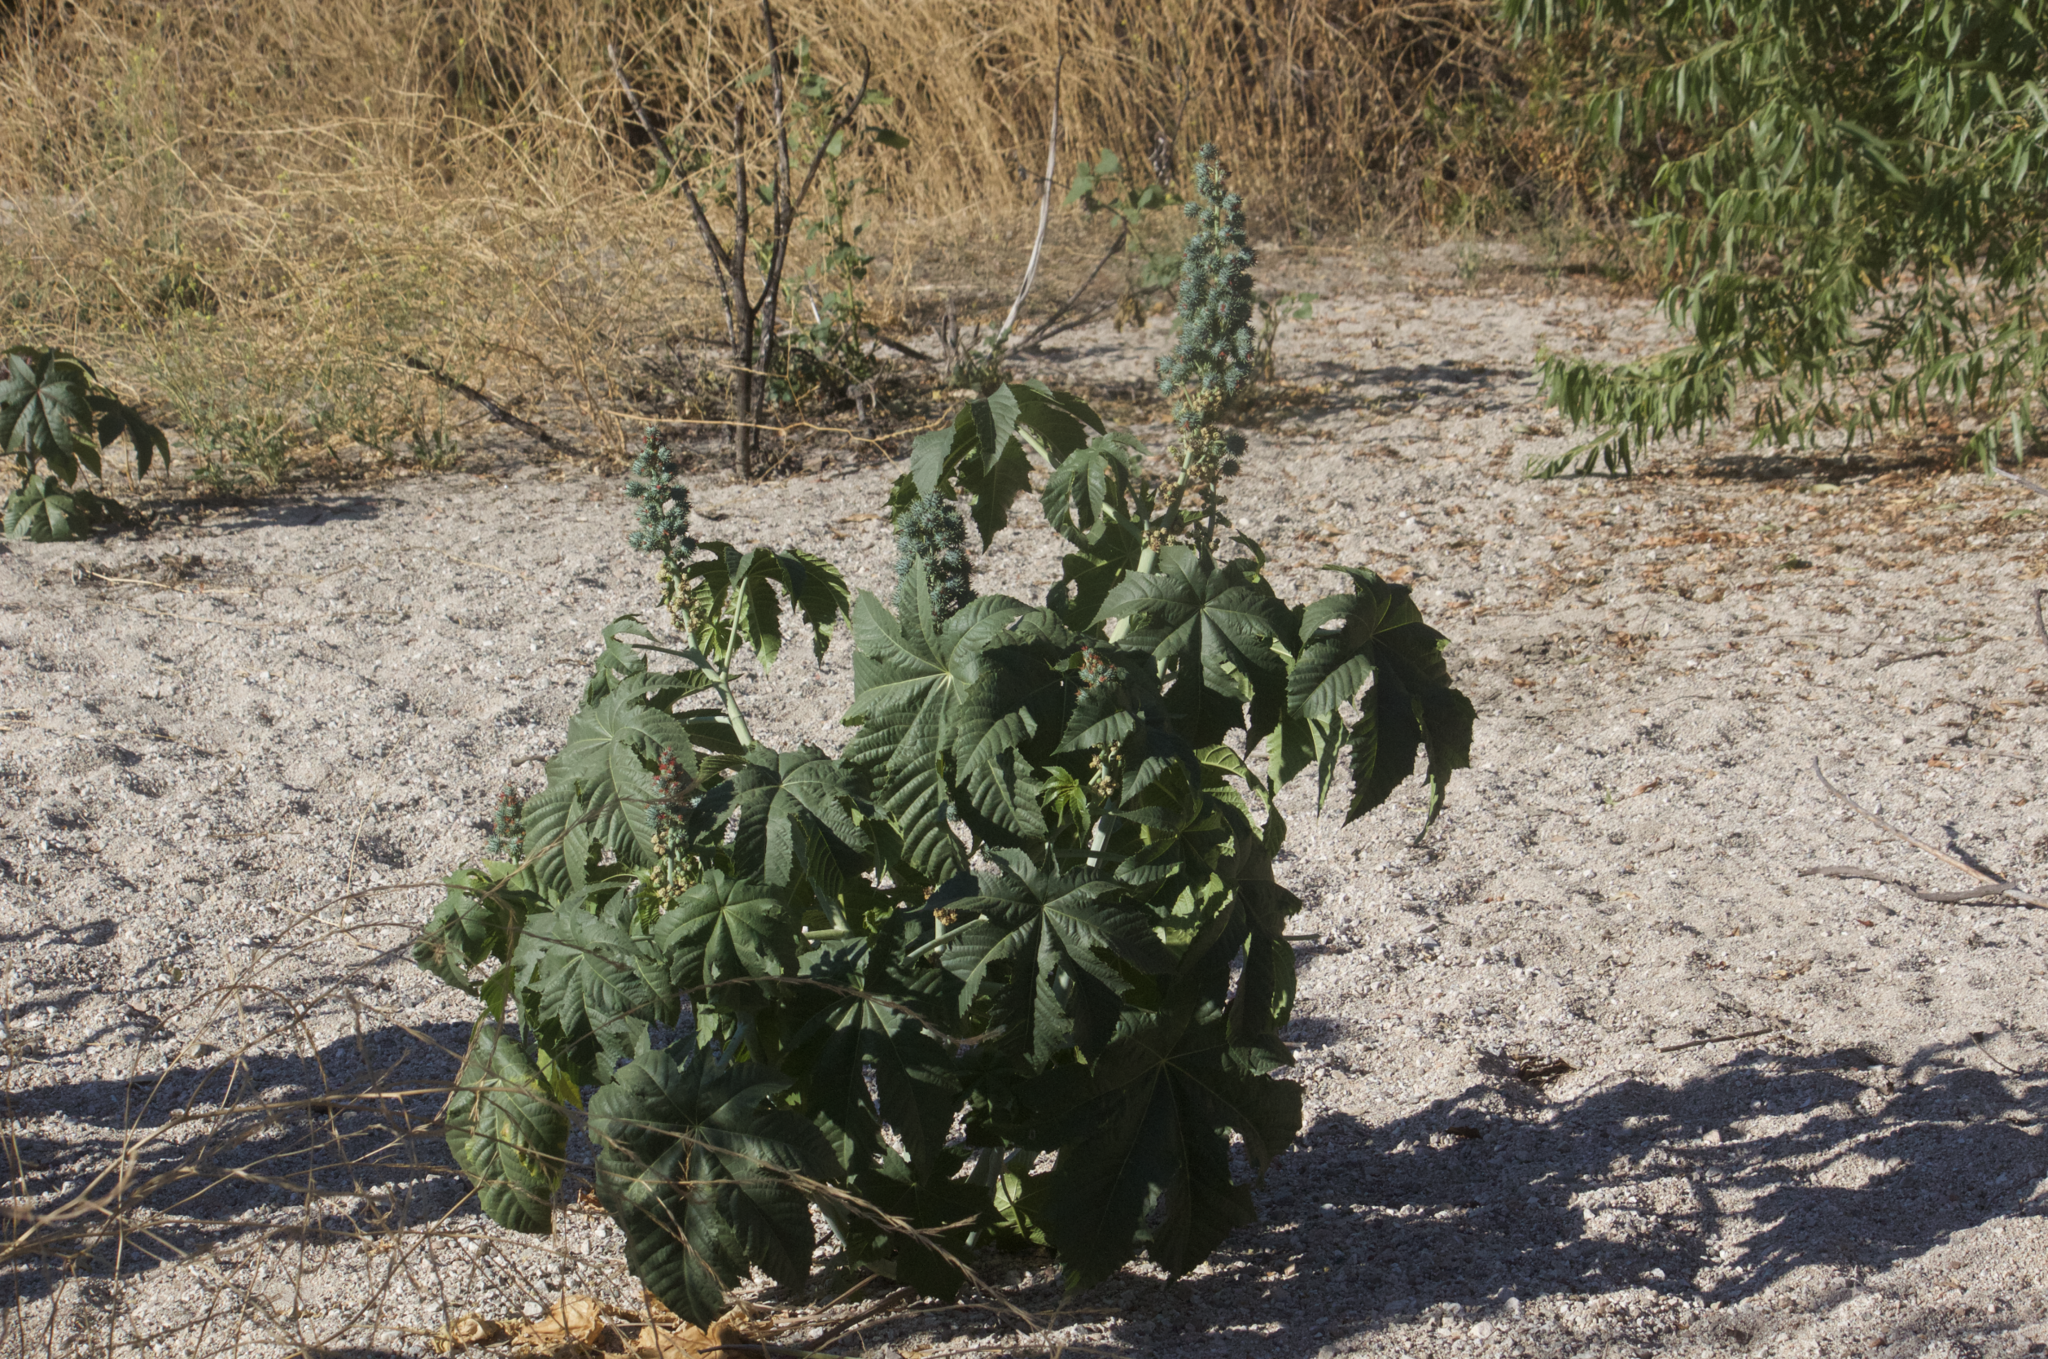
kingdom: Plantae
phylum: Tracheophyta
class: Magnoliopsida
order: Malpighiales
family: Euphorbiaceae
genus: Ricinus
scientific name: Ricinus communis
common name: Castor-oil-plant
